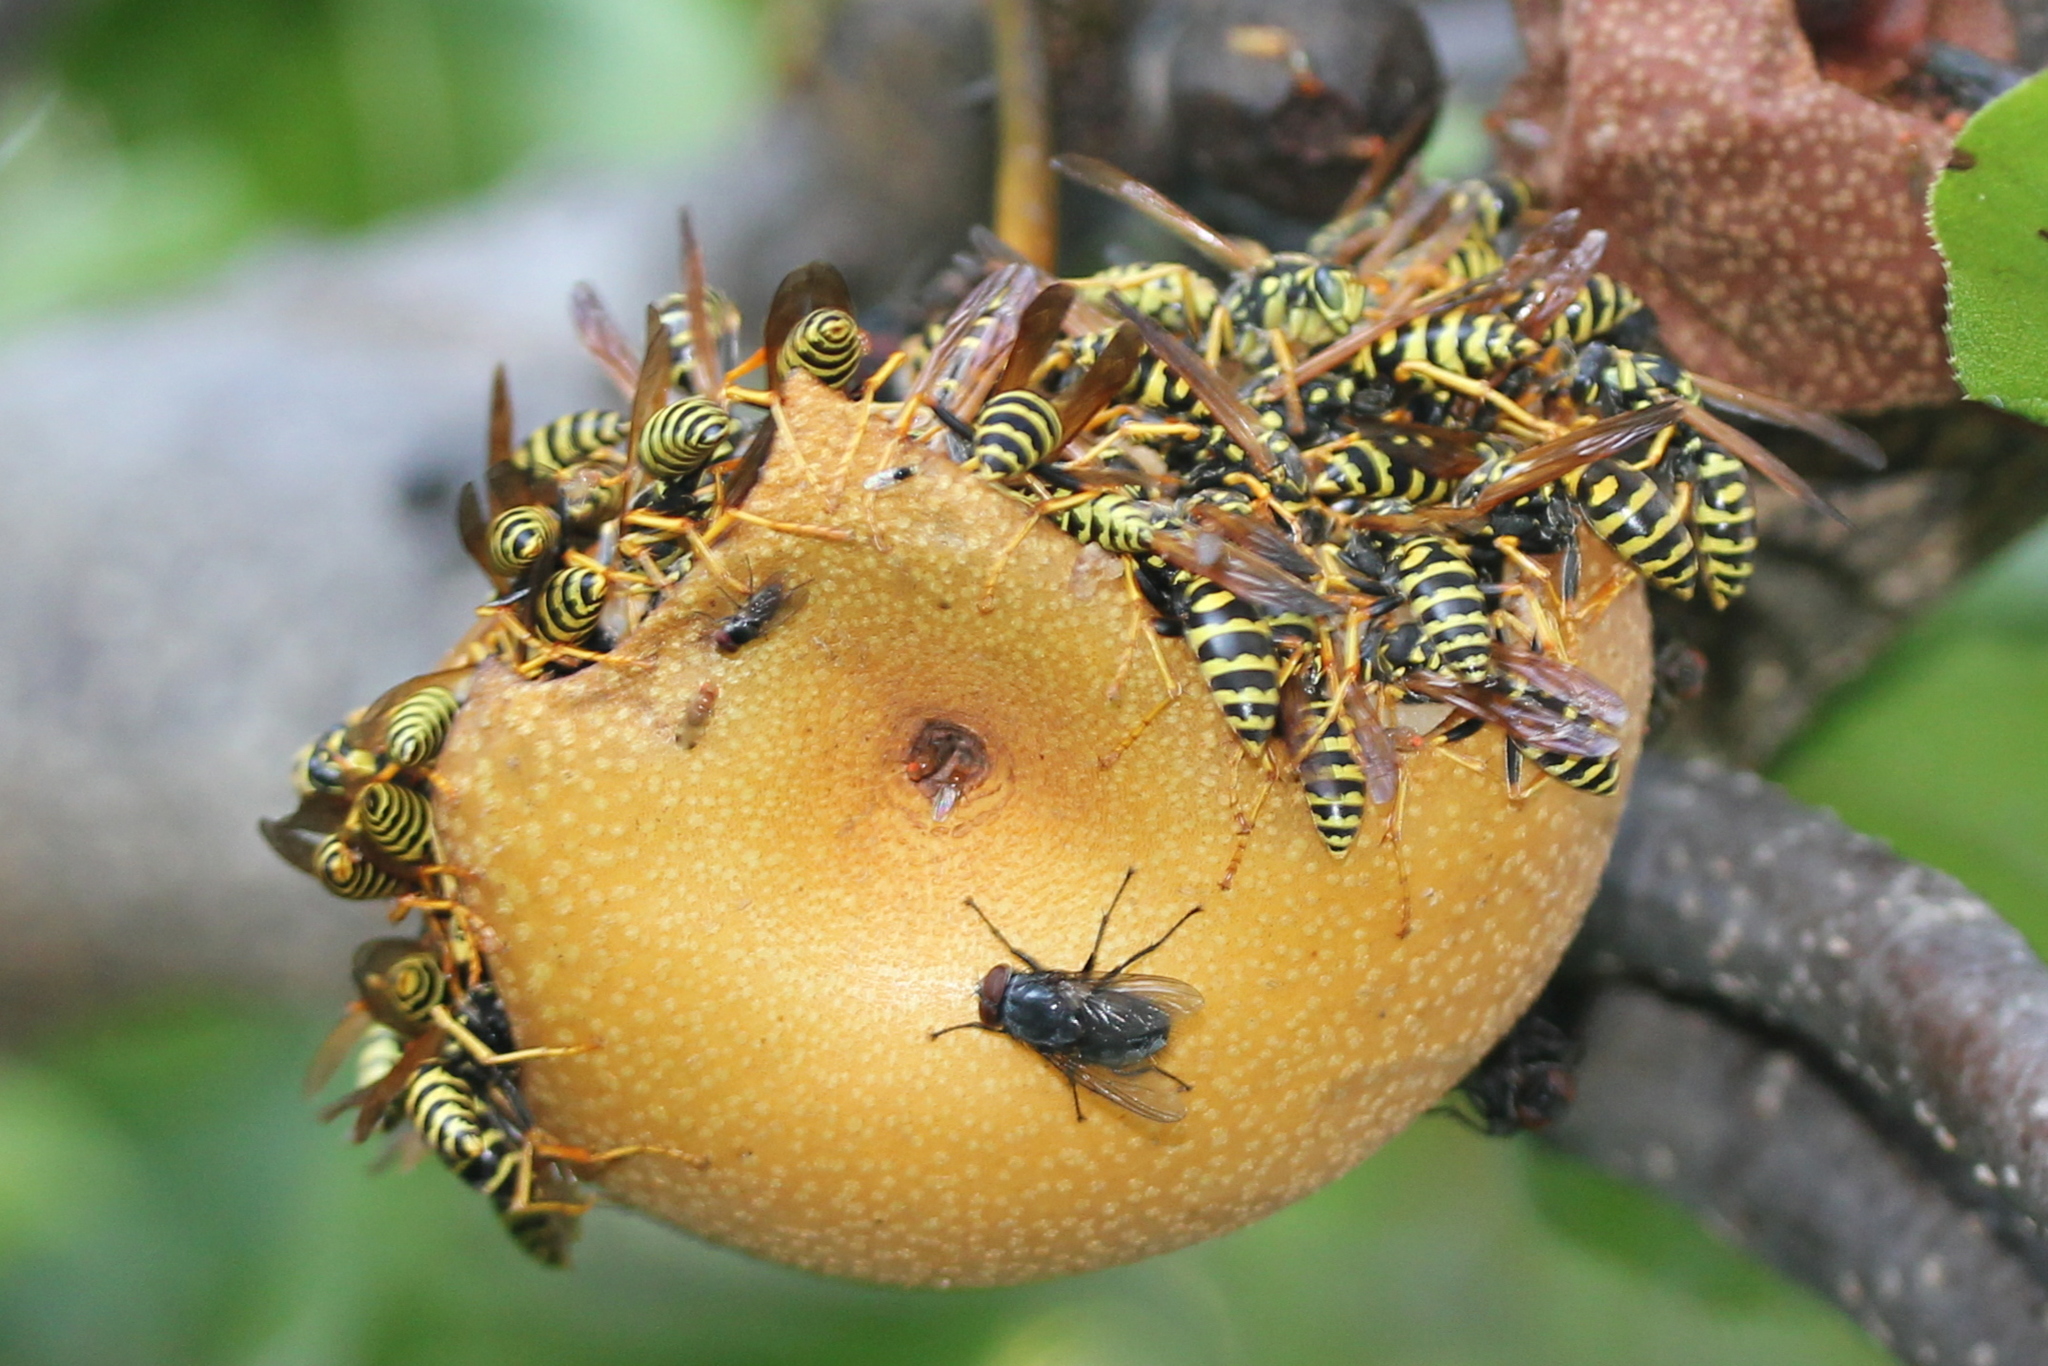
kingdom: Animalia
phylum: Arthropoda
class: Insecta
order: Hymenoptera
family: Eumenidae
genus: Polistes
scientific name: Polistes dominula
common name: Paper wasp
